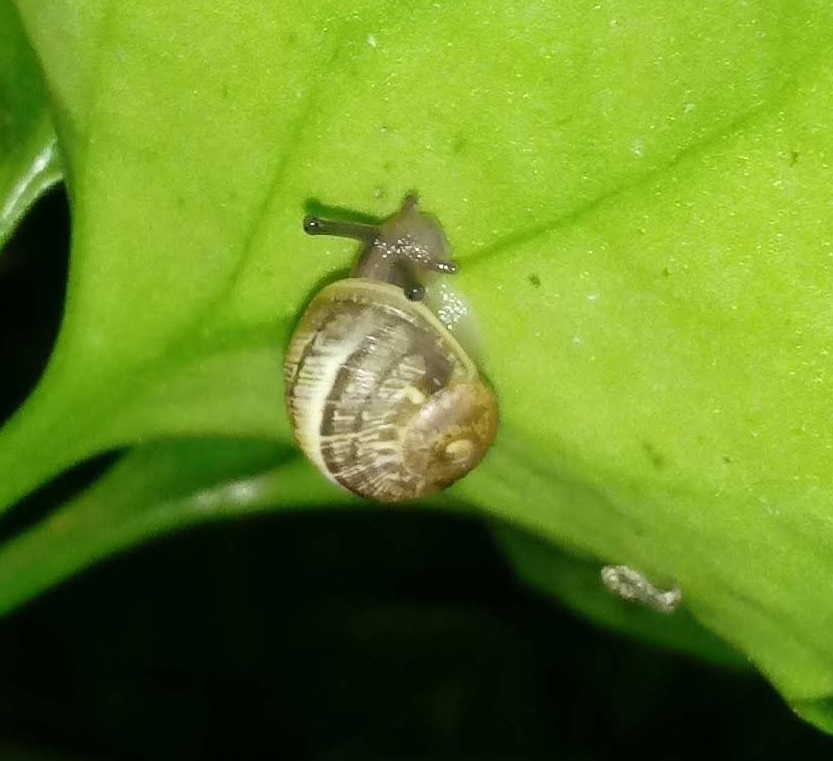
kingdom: Animalia
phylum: Mollusca
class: Gastropoda
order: Stylommatophora
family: Helicidae
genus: Cornu
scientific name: Cornu aspersum
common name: Brown garden snail
